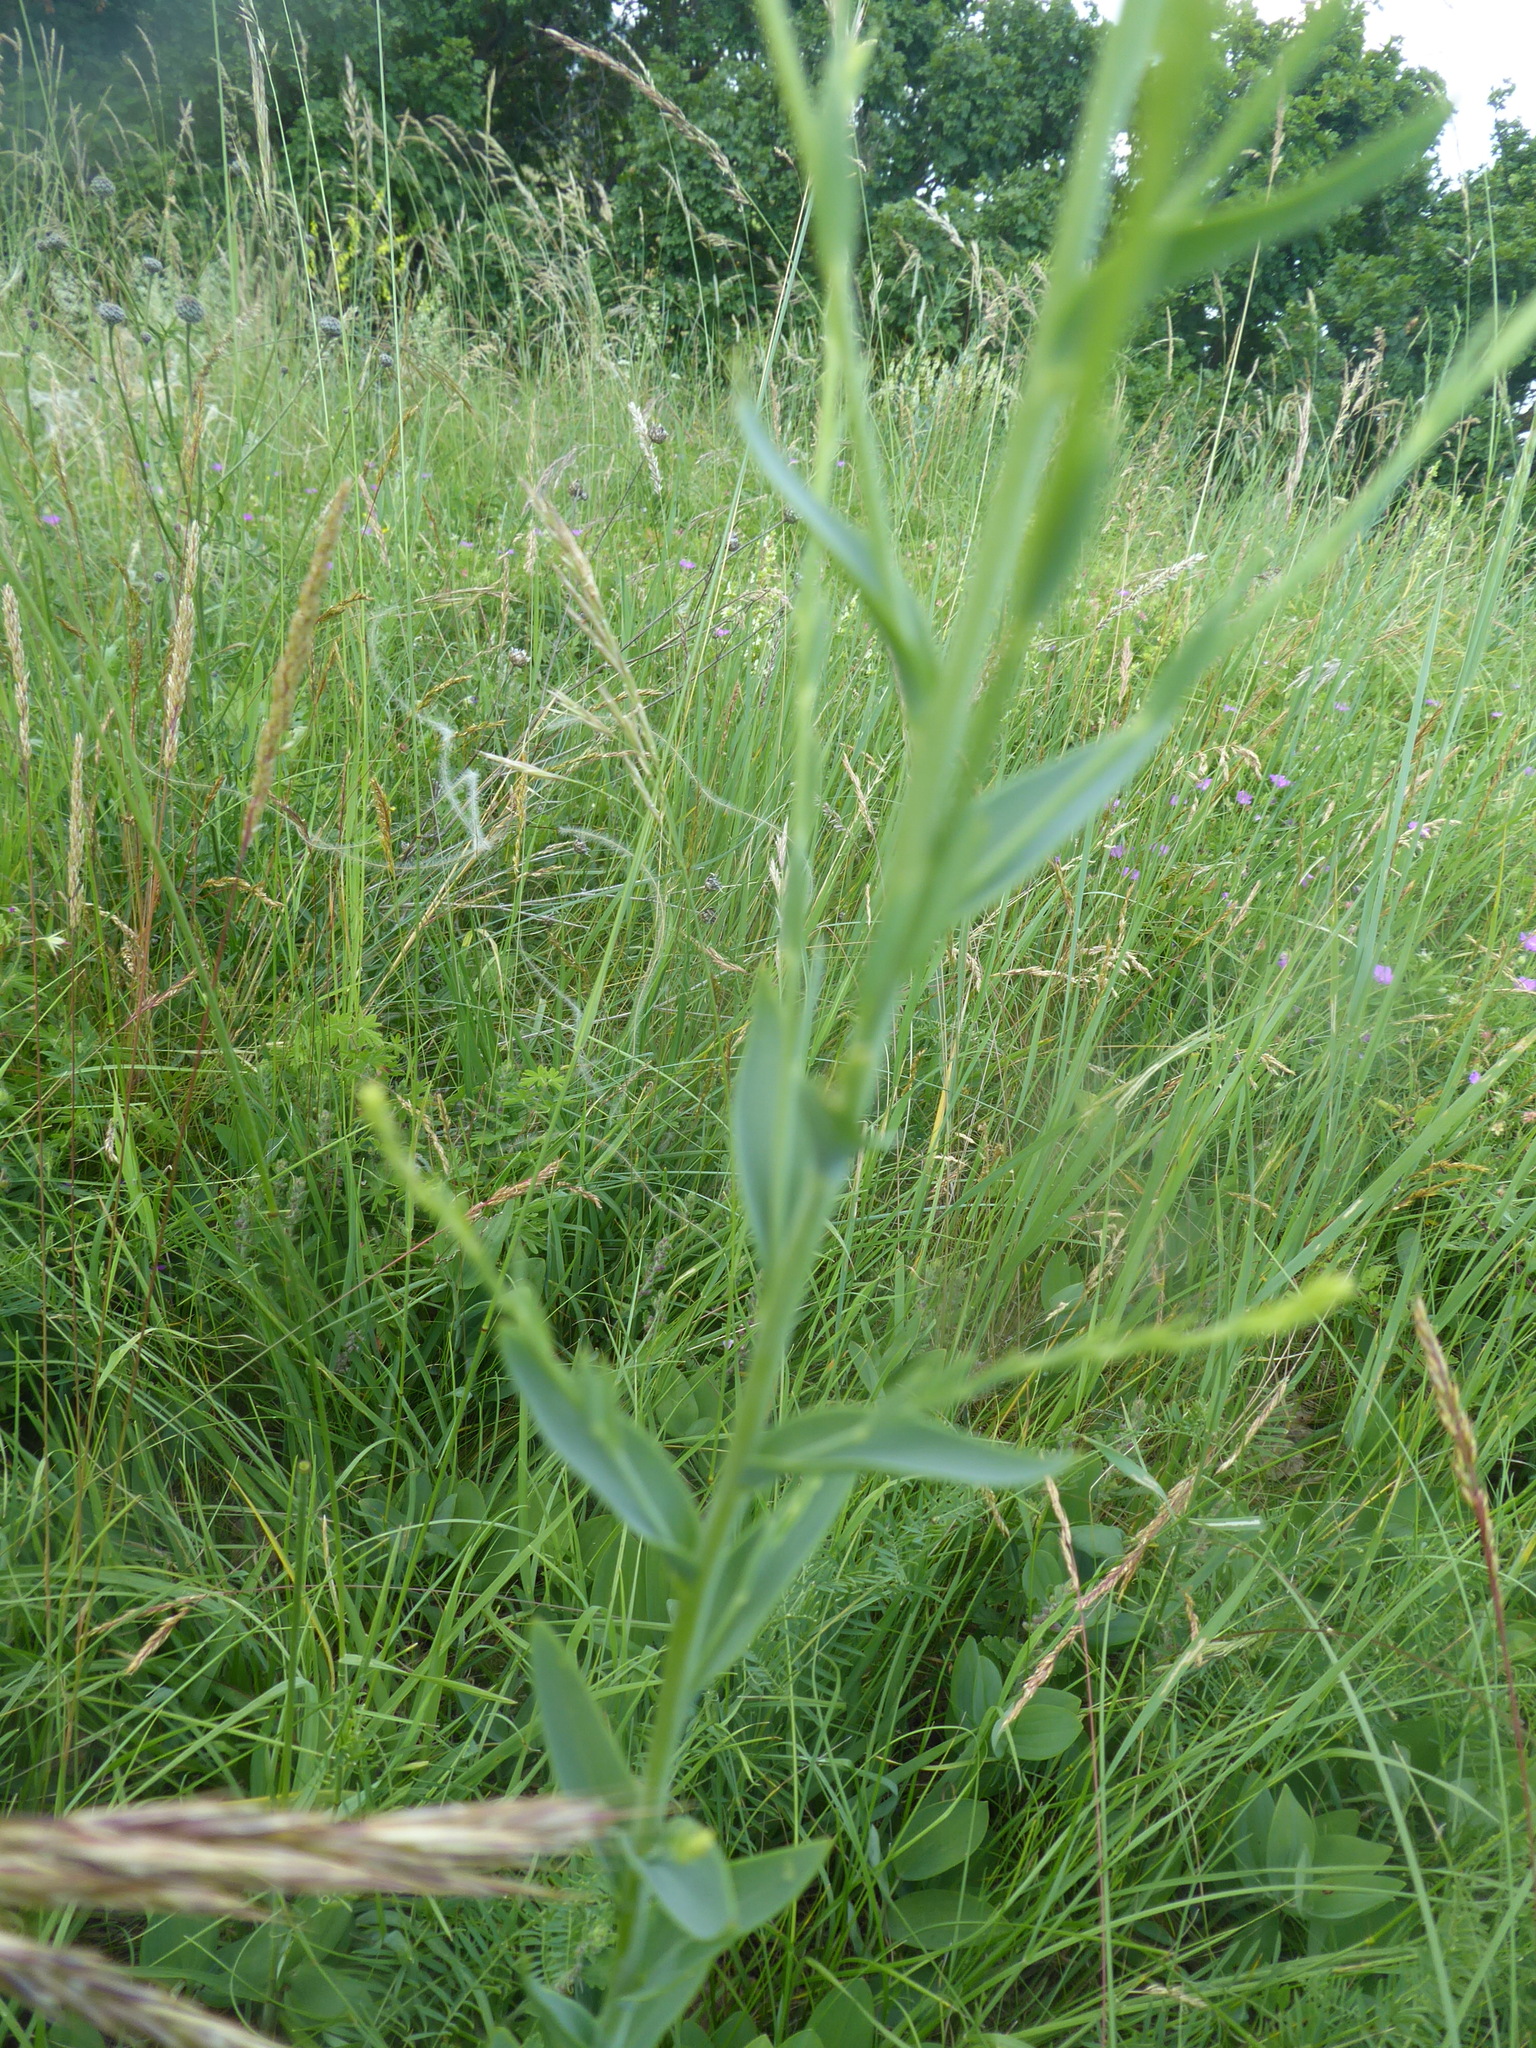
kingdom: Plantae
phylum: Tracheophyta
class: Magnoliopsida
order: Lamiales
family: Plantaginaceae
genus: Linaria
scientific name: Linaria genistifolia
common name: Broomleaf toadflax
